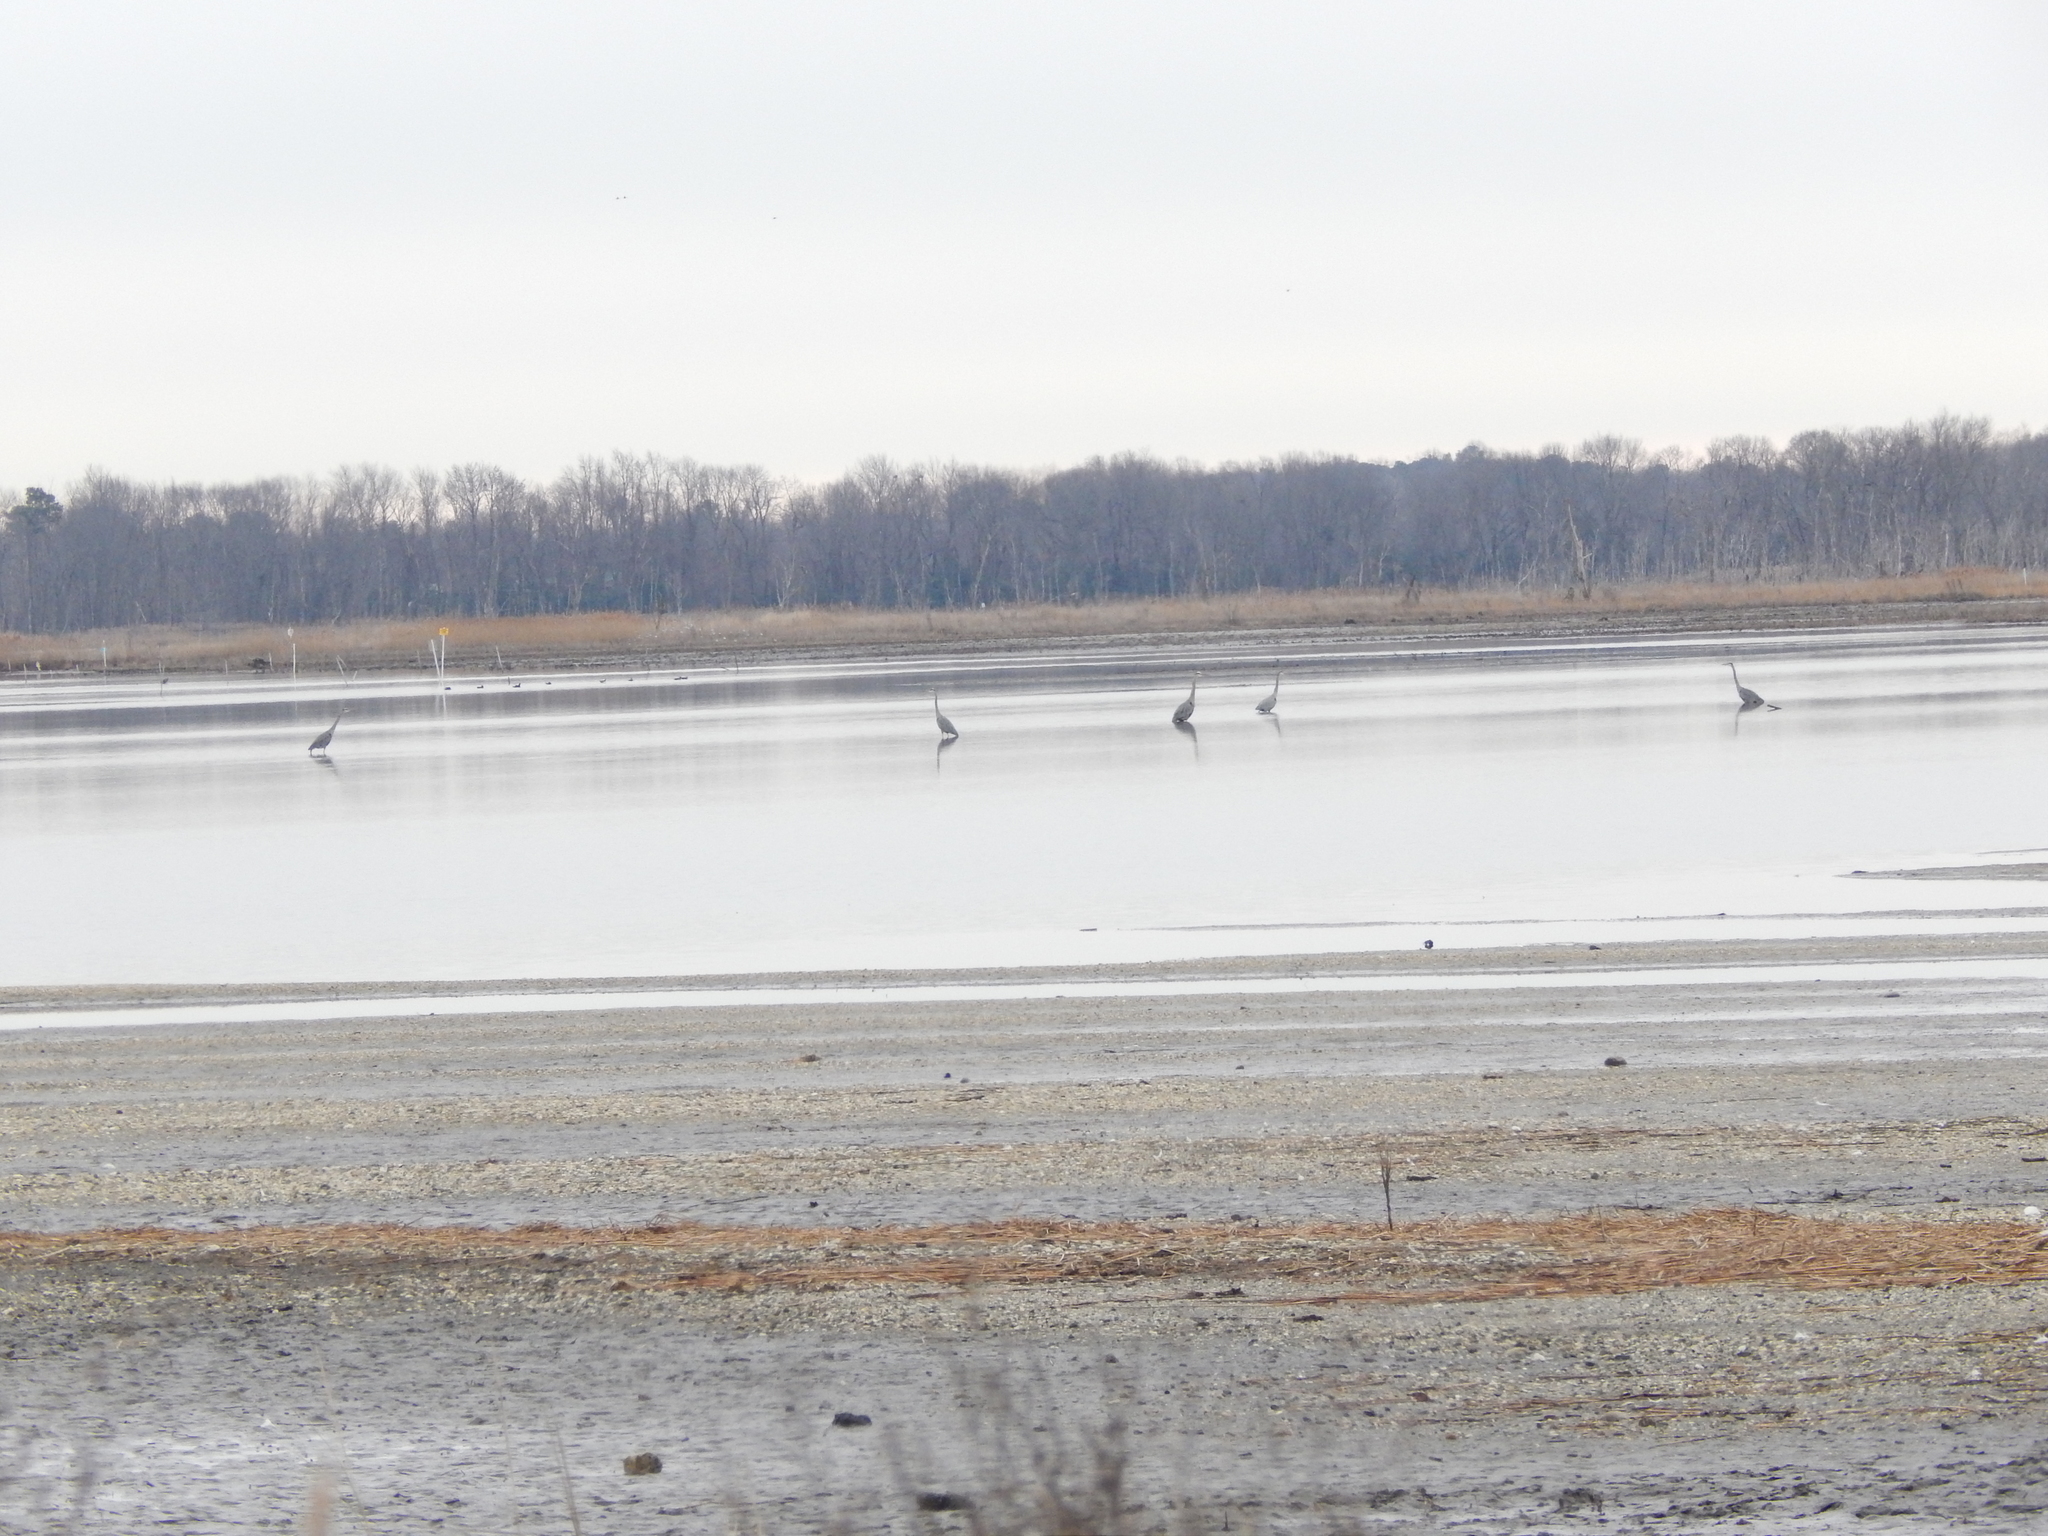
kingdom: Animalia
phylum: Chordata
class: Aves
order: Pelecaniformes
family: Ardeidae
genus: Ardea
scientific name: Ardea herodias
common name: Great blue heron
